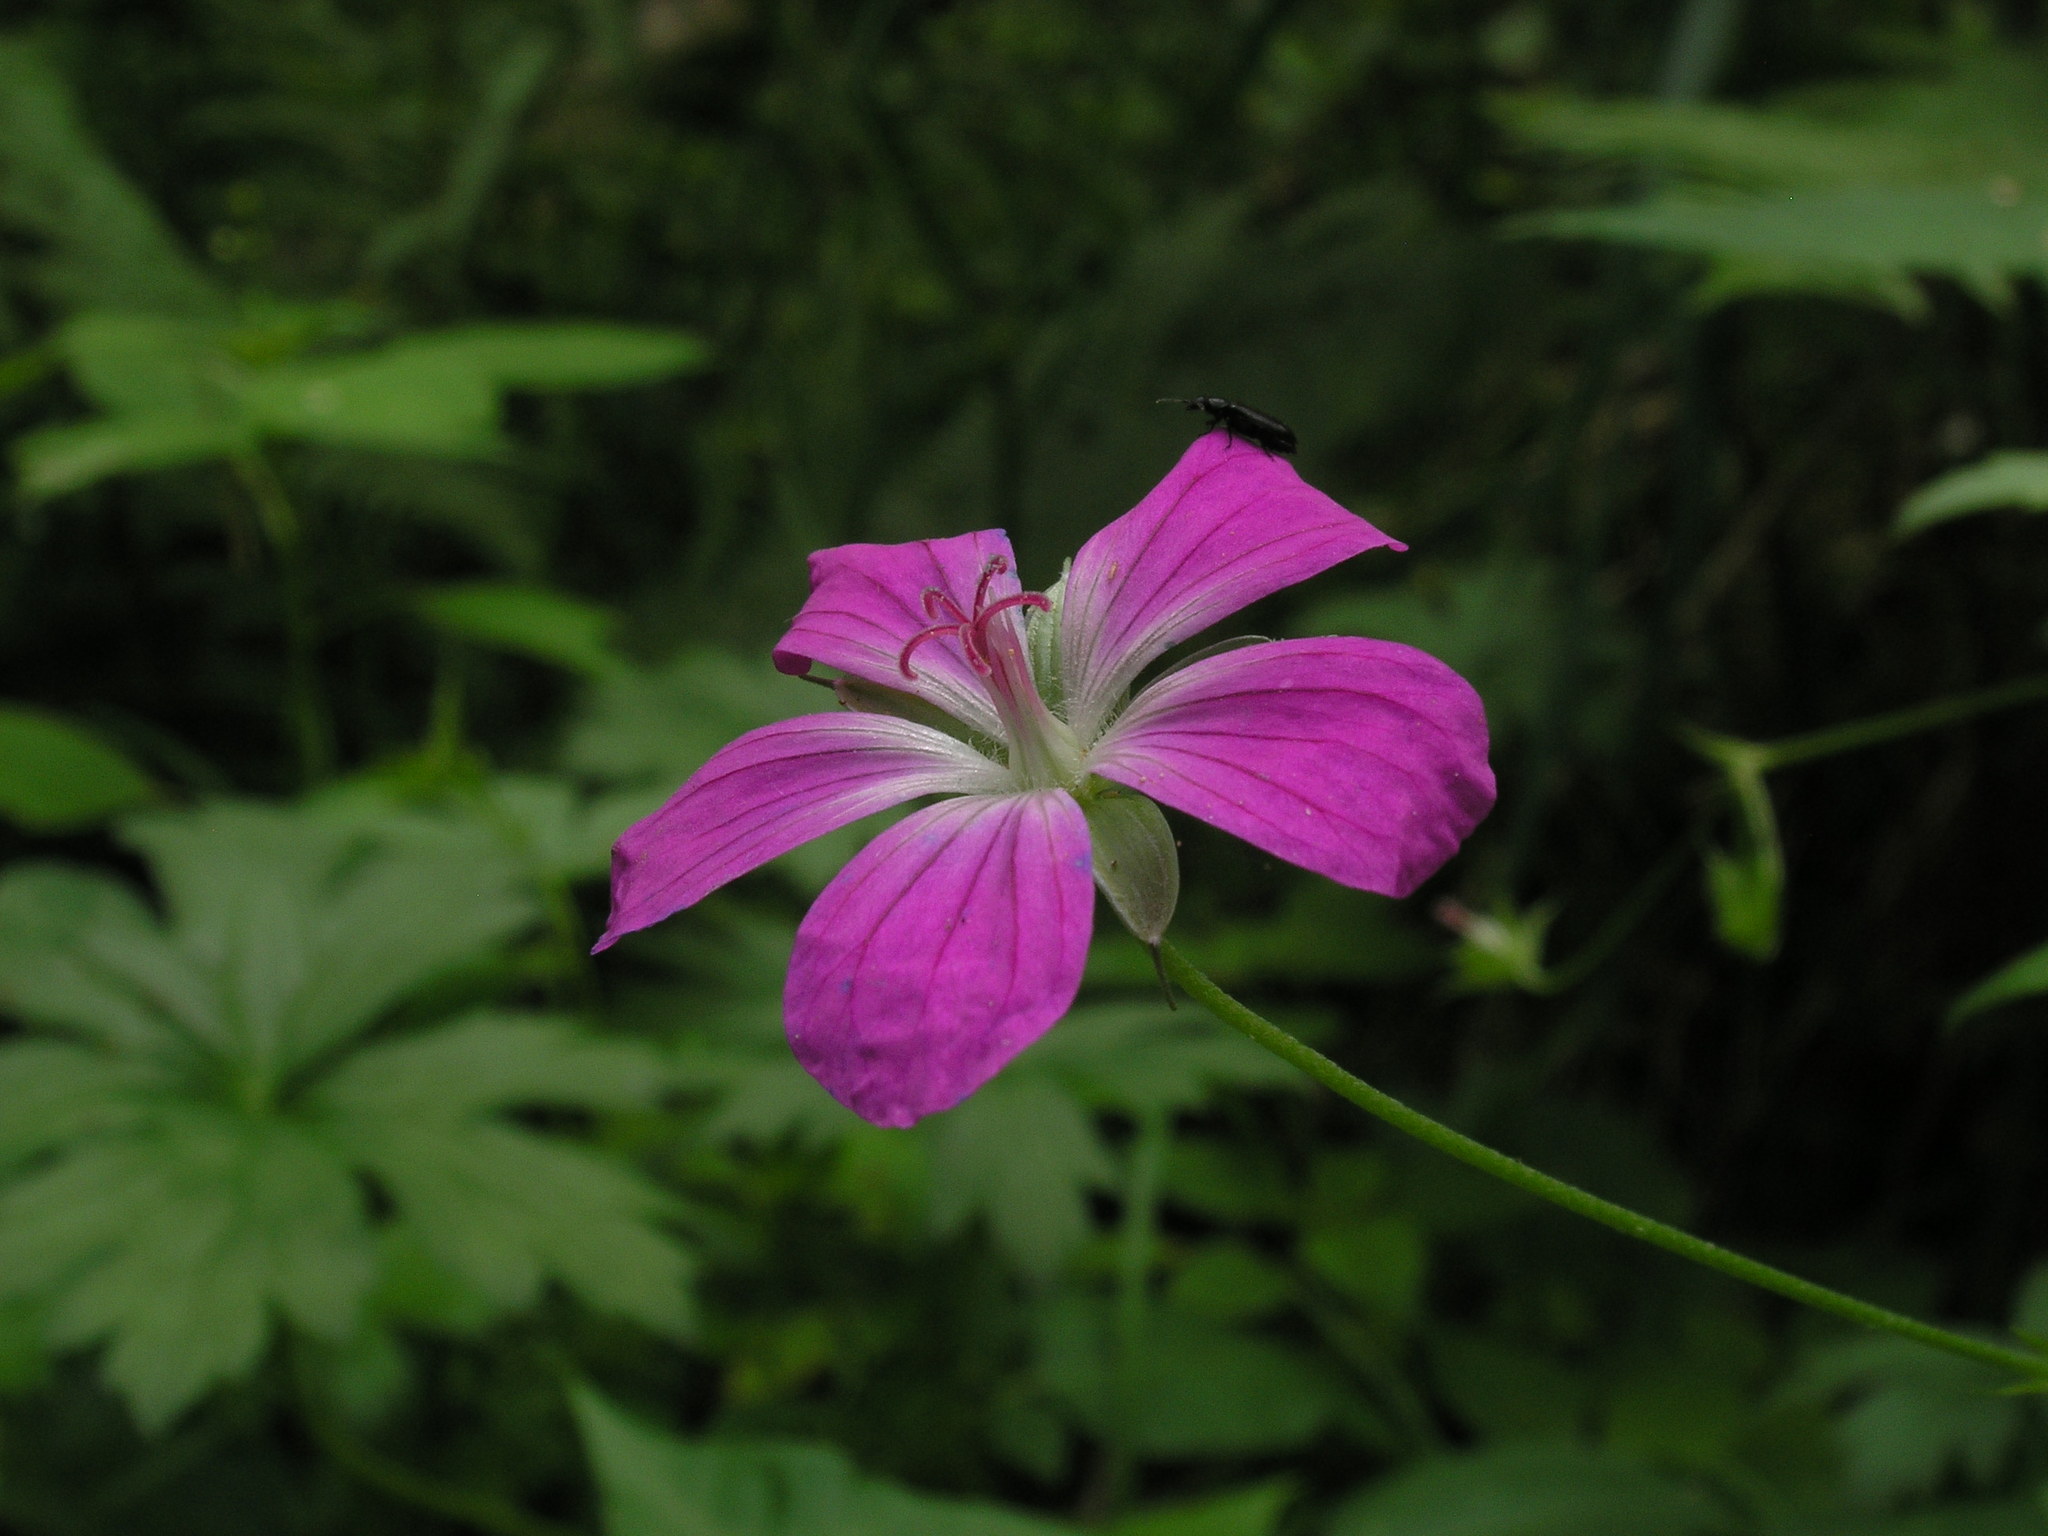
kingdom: Plantae
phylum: Tracheophyta
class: Magnoliopsida
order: Geraniales
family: Geraniaceae
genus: Geranium
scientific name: Geranium palustre
